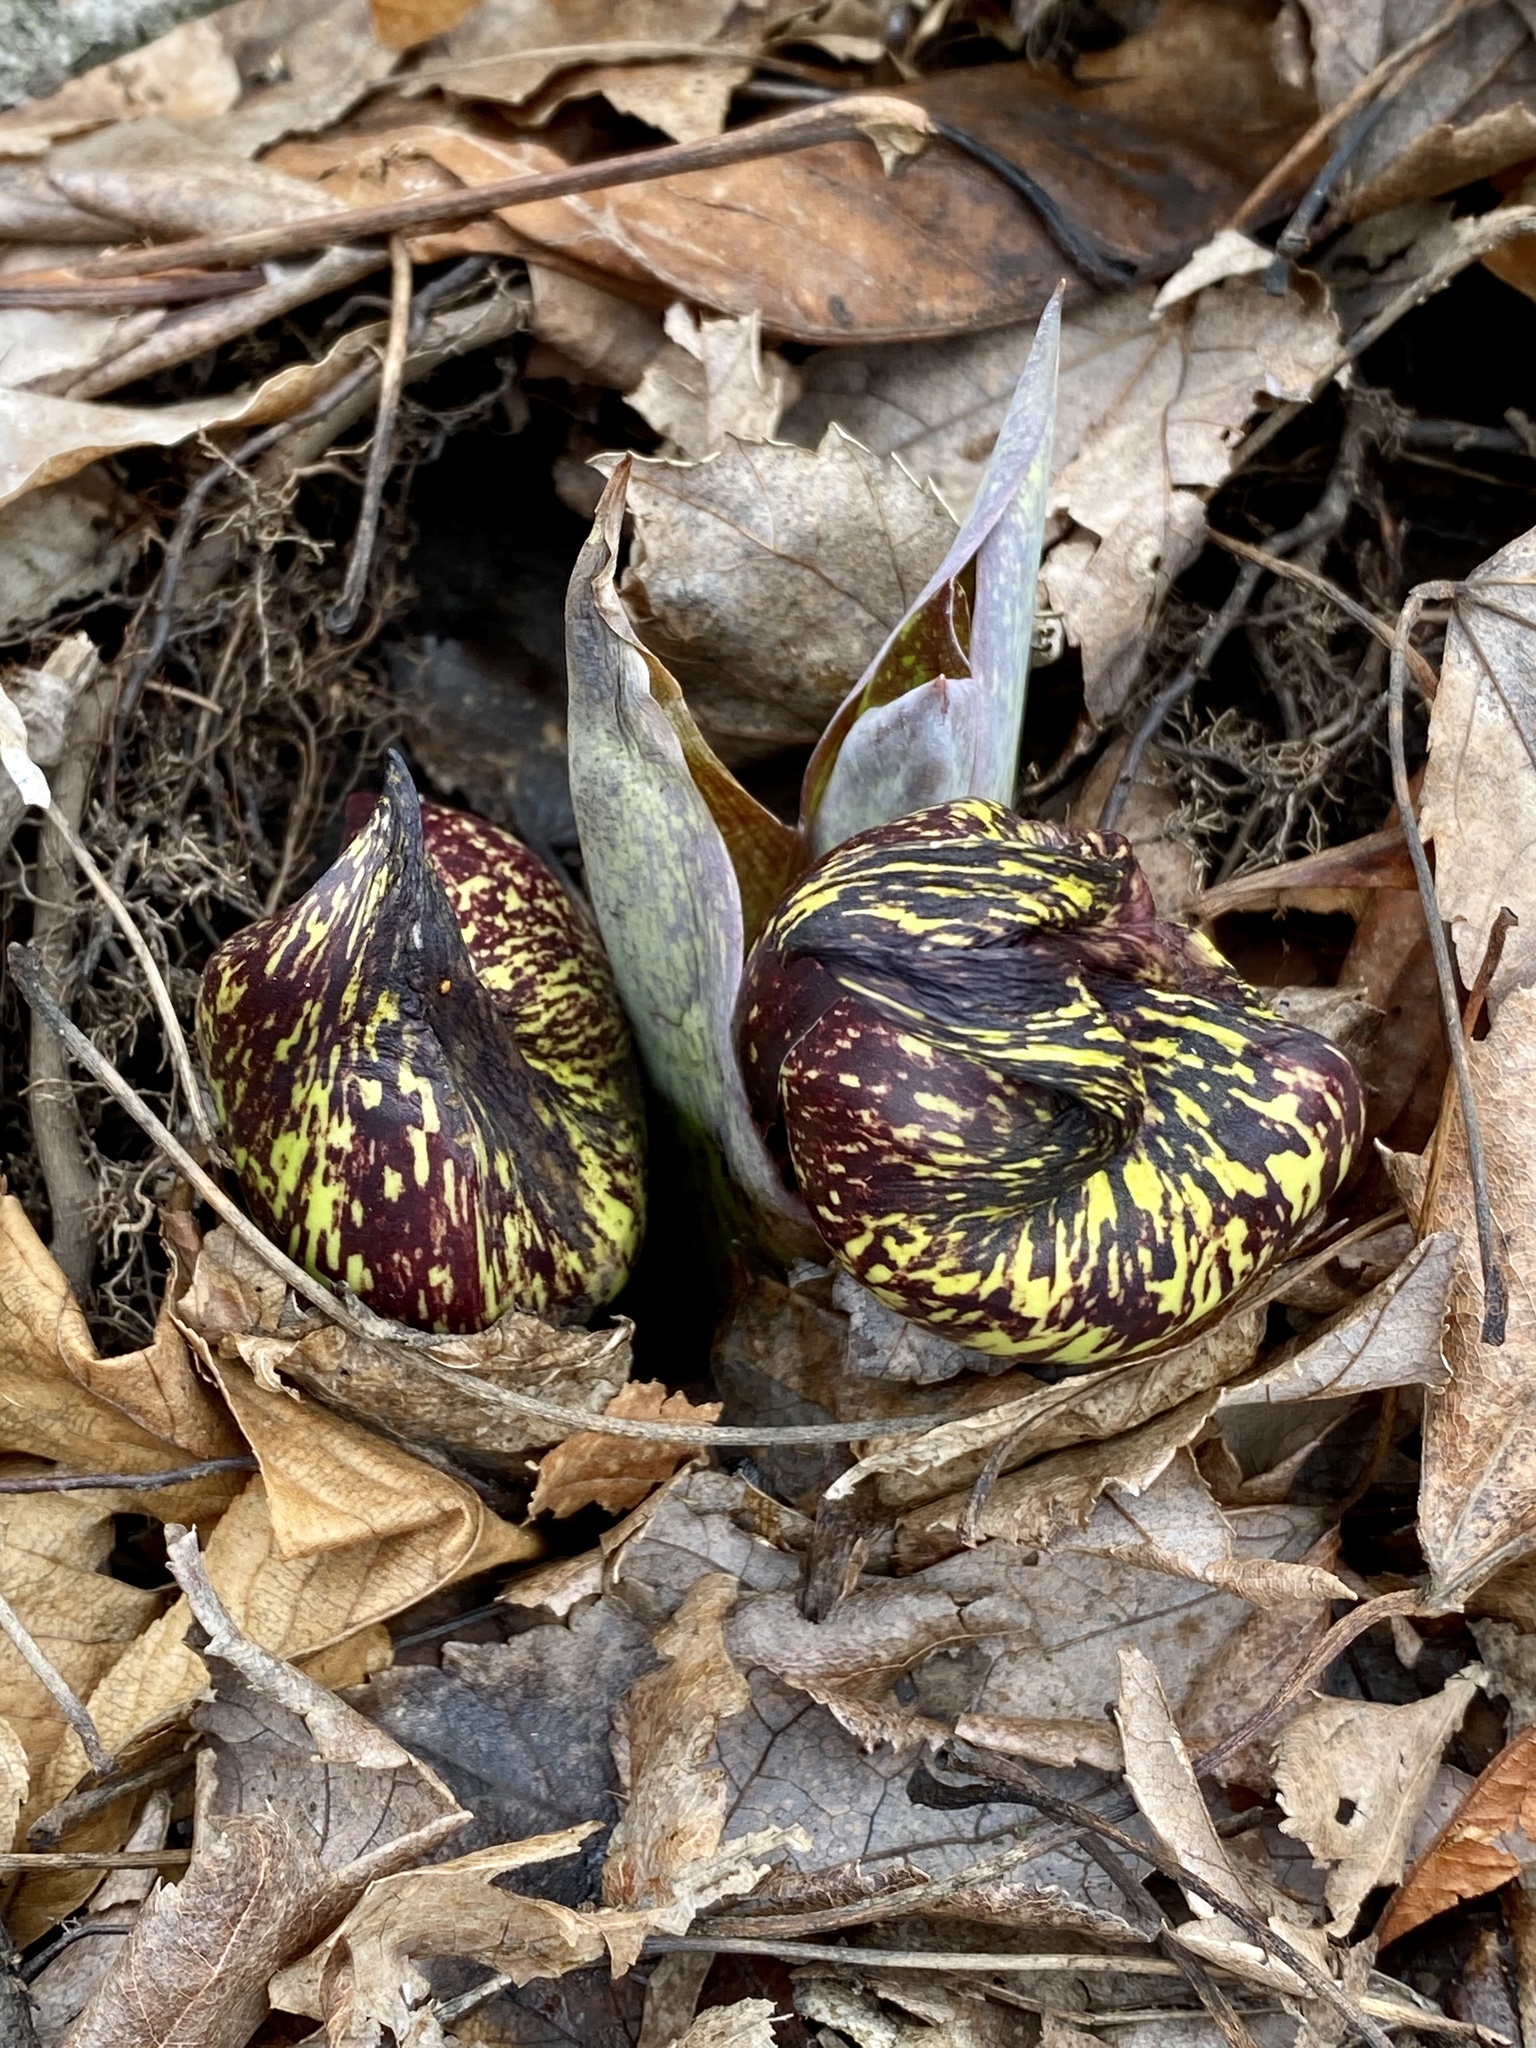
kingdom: Plantae
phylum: Tracheophyta
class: Liliopsida
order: Alismatales
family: Araceae
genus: Symplocarpus
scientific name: Symplocarpus foetidus
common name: Eastern skunk cabbage
